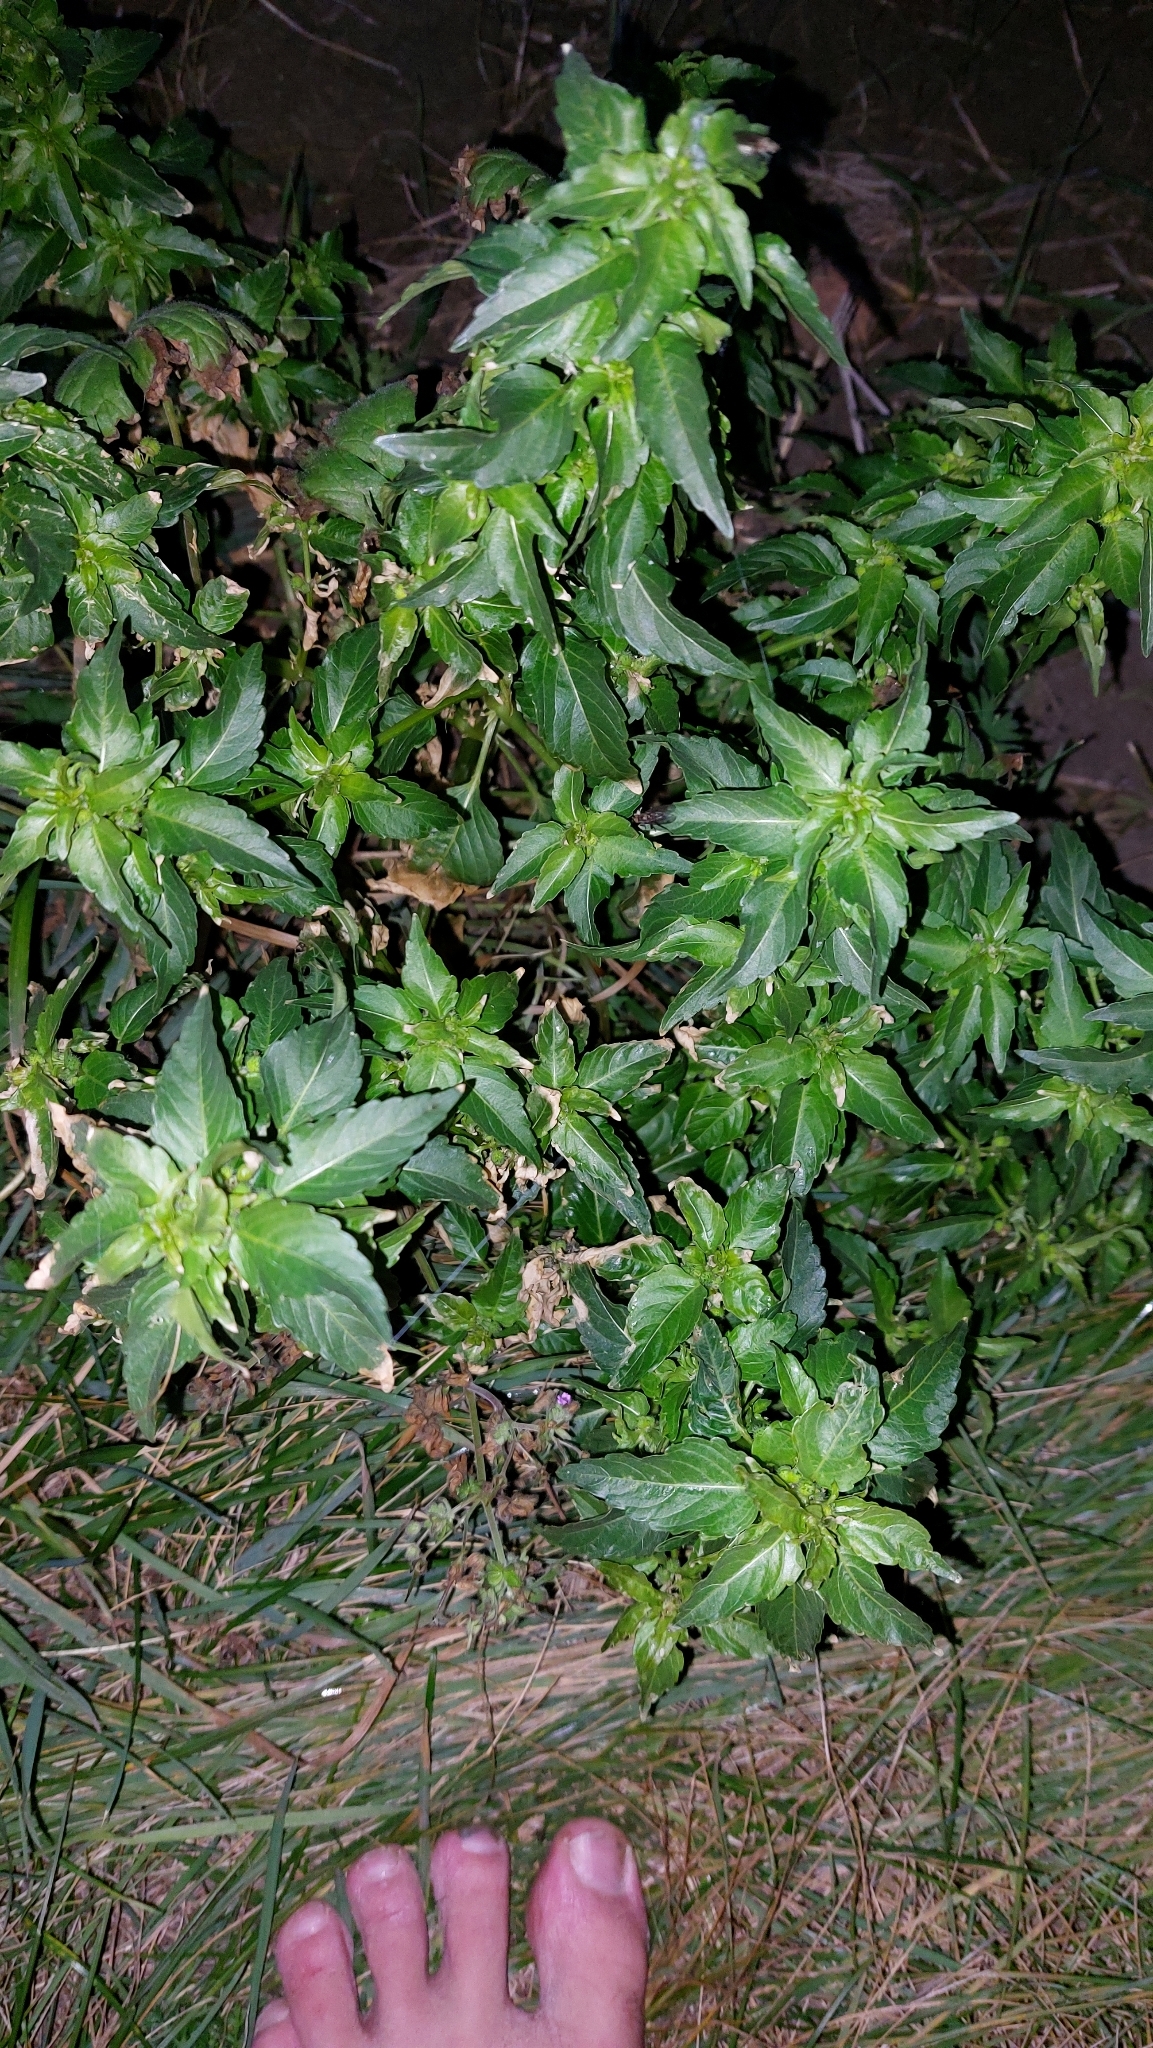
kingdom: Plantae
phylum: Tracheophyta
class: Magnoliopsida
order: Malpighiales
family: Euphorbiaceae
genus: Mercurialis
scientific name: Mercurialis annua
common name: Annual mercury
